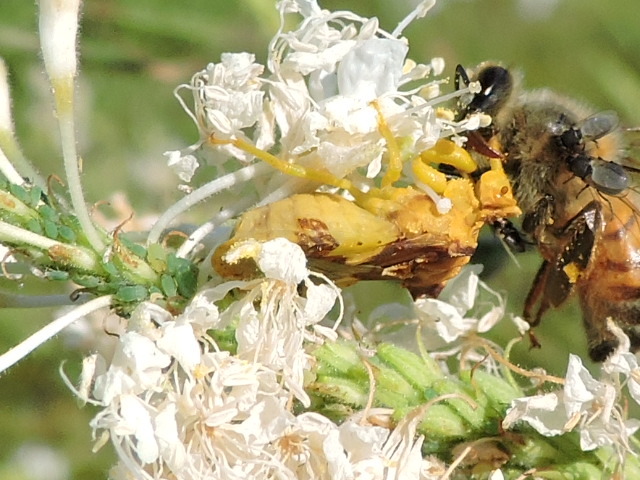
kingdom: Animalia
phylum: Arthropoda
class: Insecta
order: Hemiptera
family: Reduviidae
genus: Phymata
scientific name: Phymata americana
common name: Jagged ambush bug
